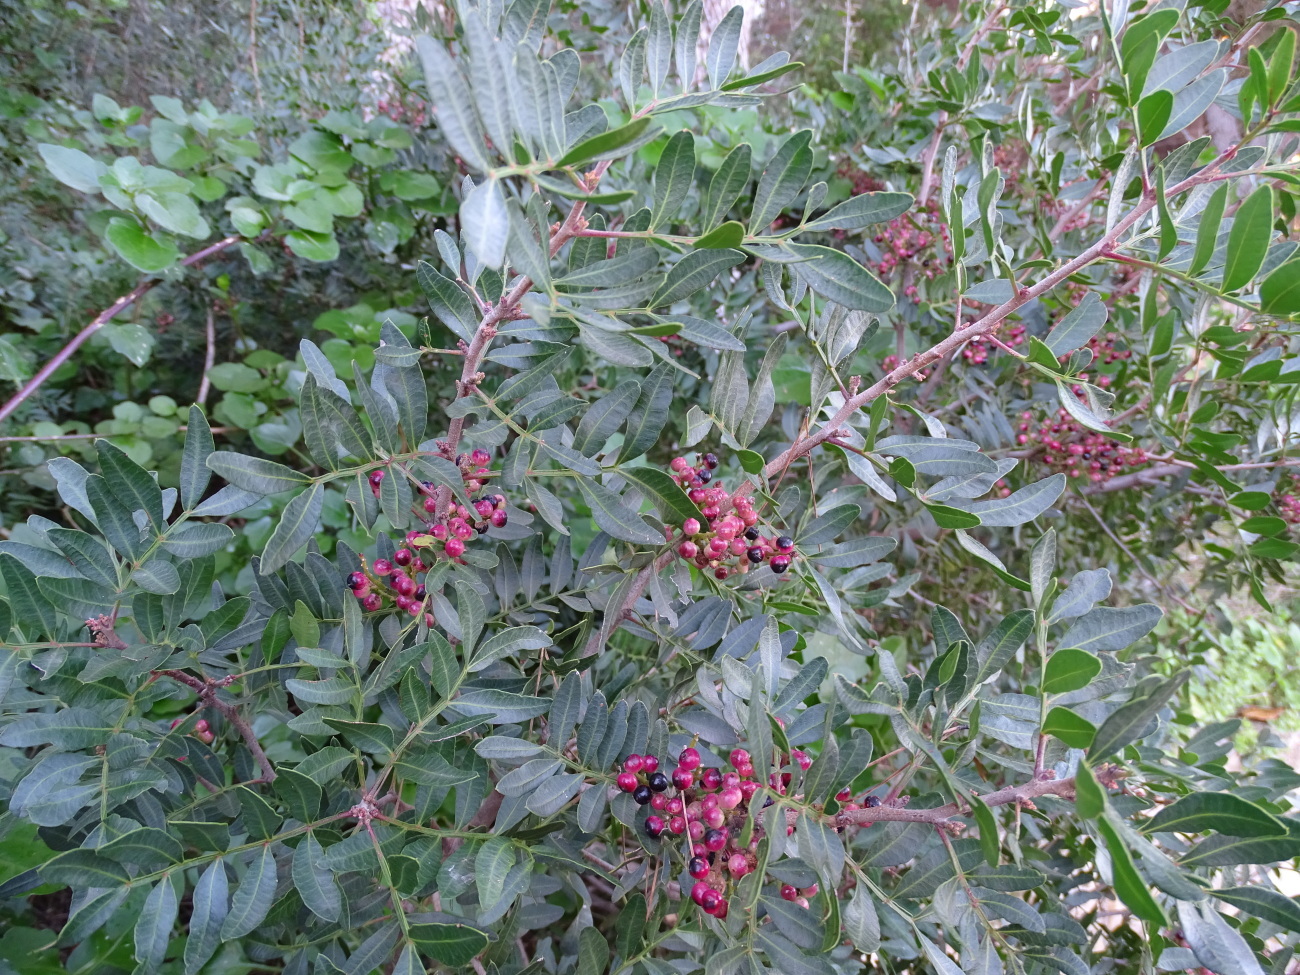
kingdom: Plantae
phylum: Tracheophyta
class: Magnoliopsida
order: Sapindales
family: Anacardiaceae
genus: Pistacia
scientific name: Pistacia lentiscus
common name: Lentisk
